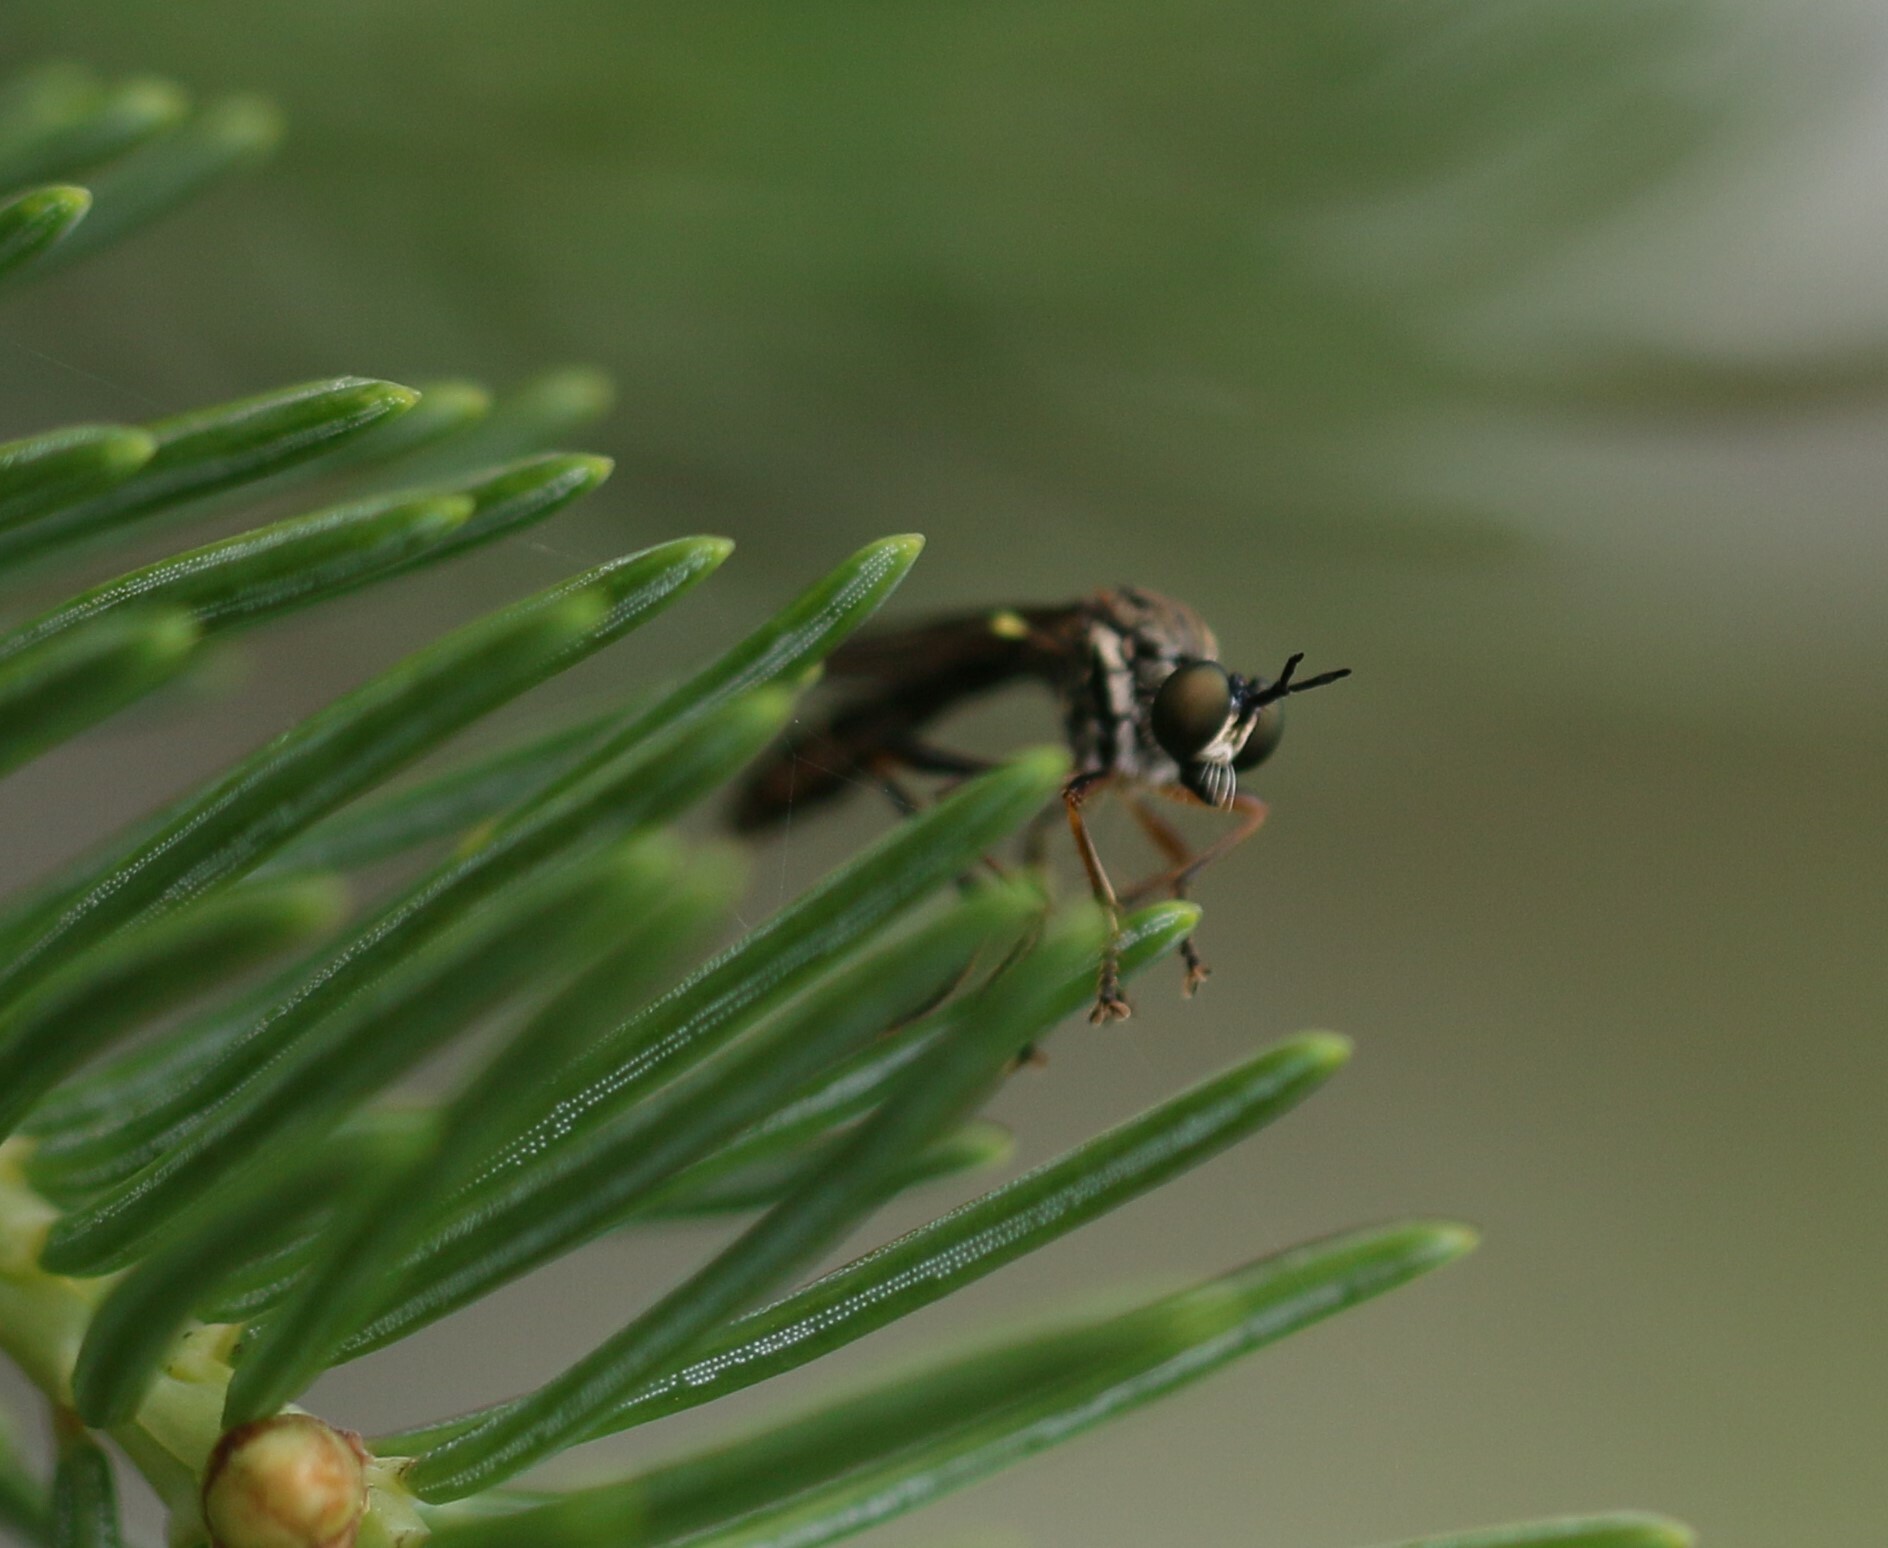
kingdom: Animalia
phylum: Arthropoda
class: Insecta
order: Diptera
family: Asilidae
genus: Dioctria
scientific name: Dioctria hyalipennis
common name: Stripe-legged robberfly
